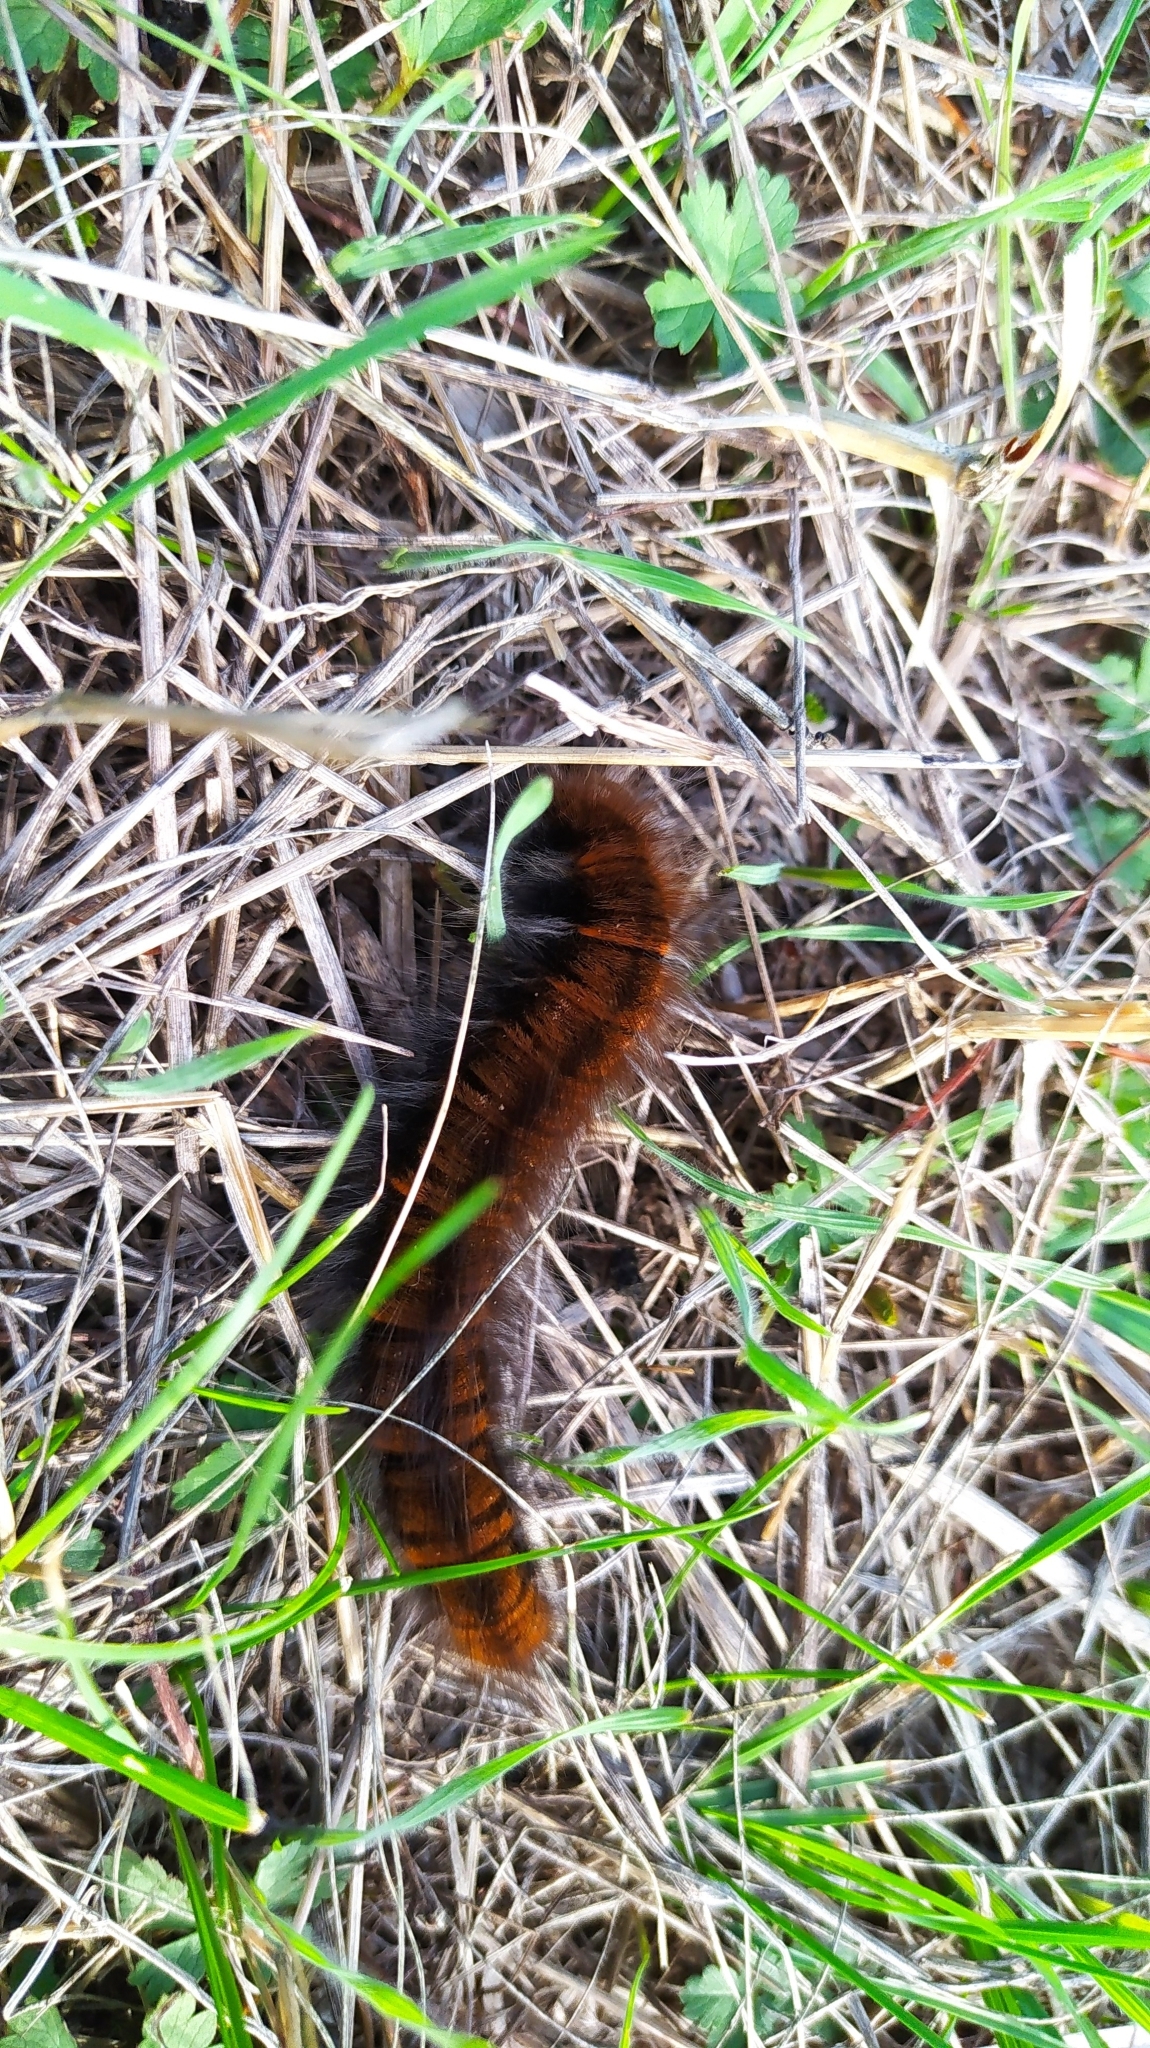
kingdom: Animalia
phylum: Arthropoda
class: Insecta
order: Lepidoptera
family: Lasiocampidae
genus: Macrothylacia
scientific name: Macrothylacia rubi
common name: Fox moth
